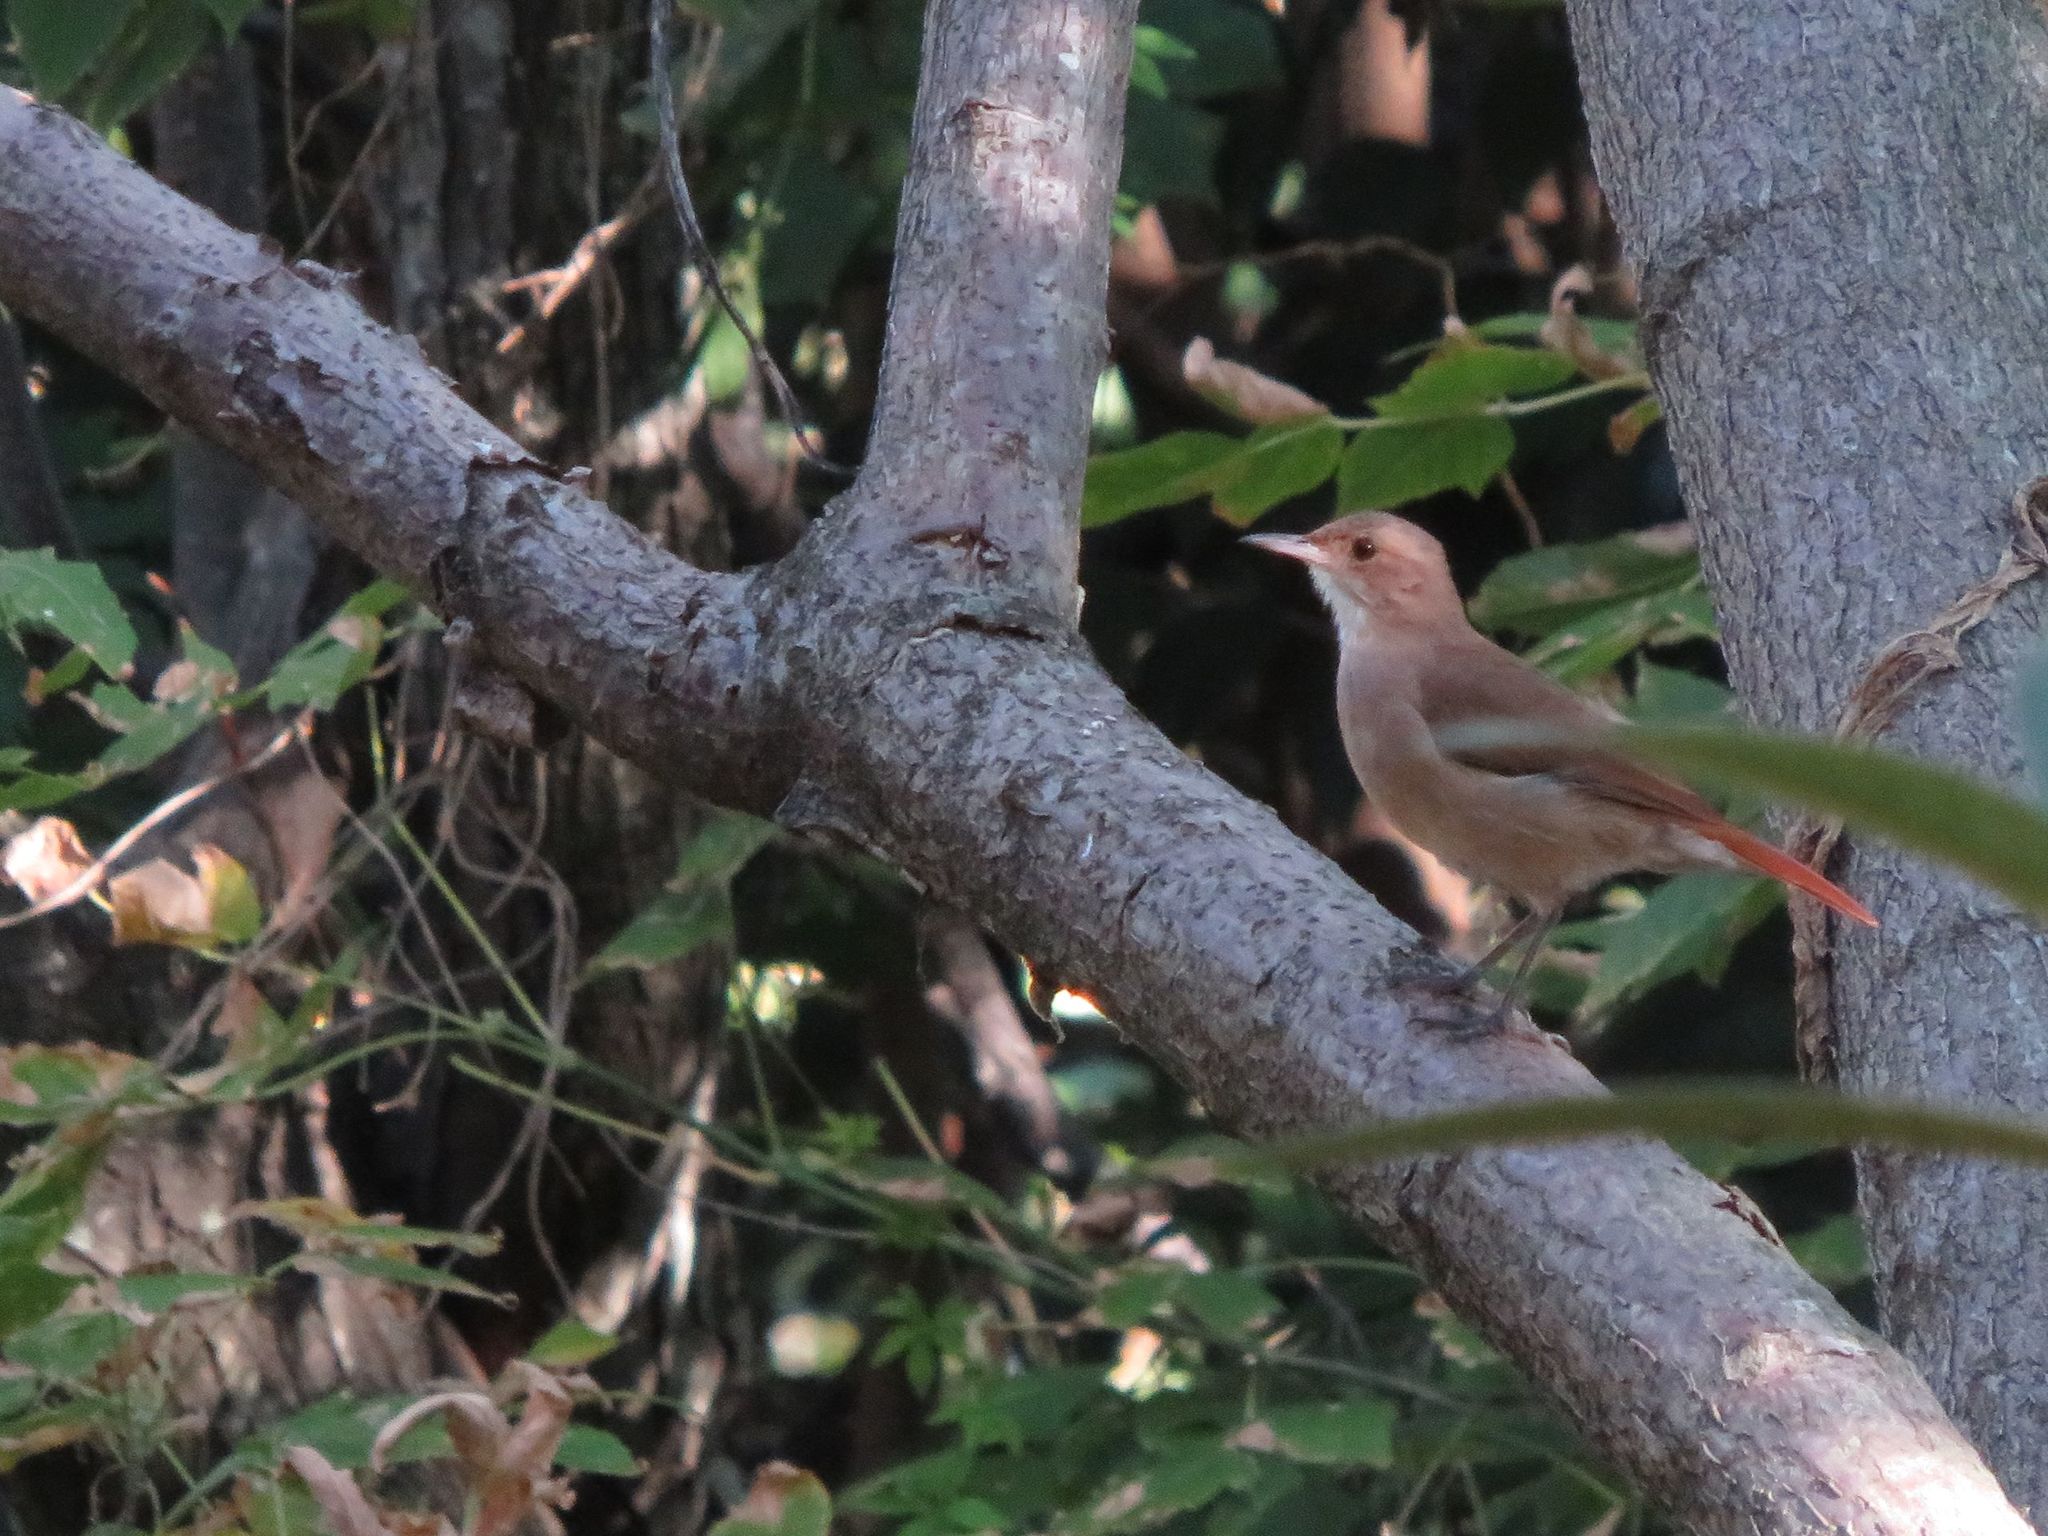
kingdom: Animalia
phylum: Chordata
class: Aves
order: Passeriformes
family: Furnariidae
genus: Furnarius
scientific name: Furnarius rufus
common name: Rufous hornero
